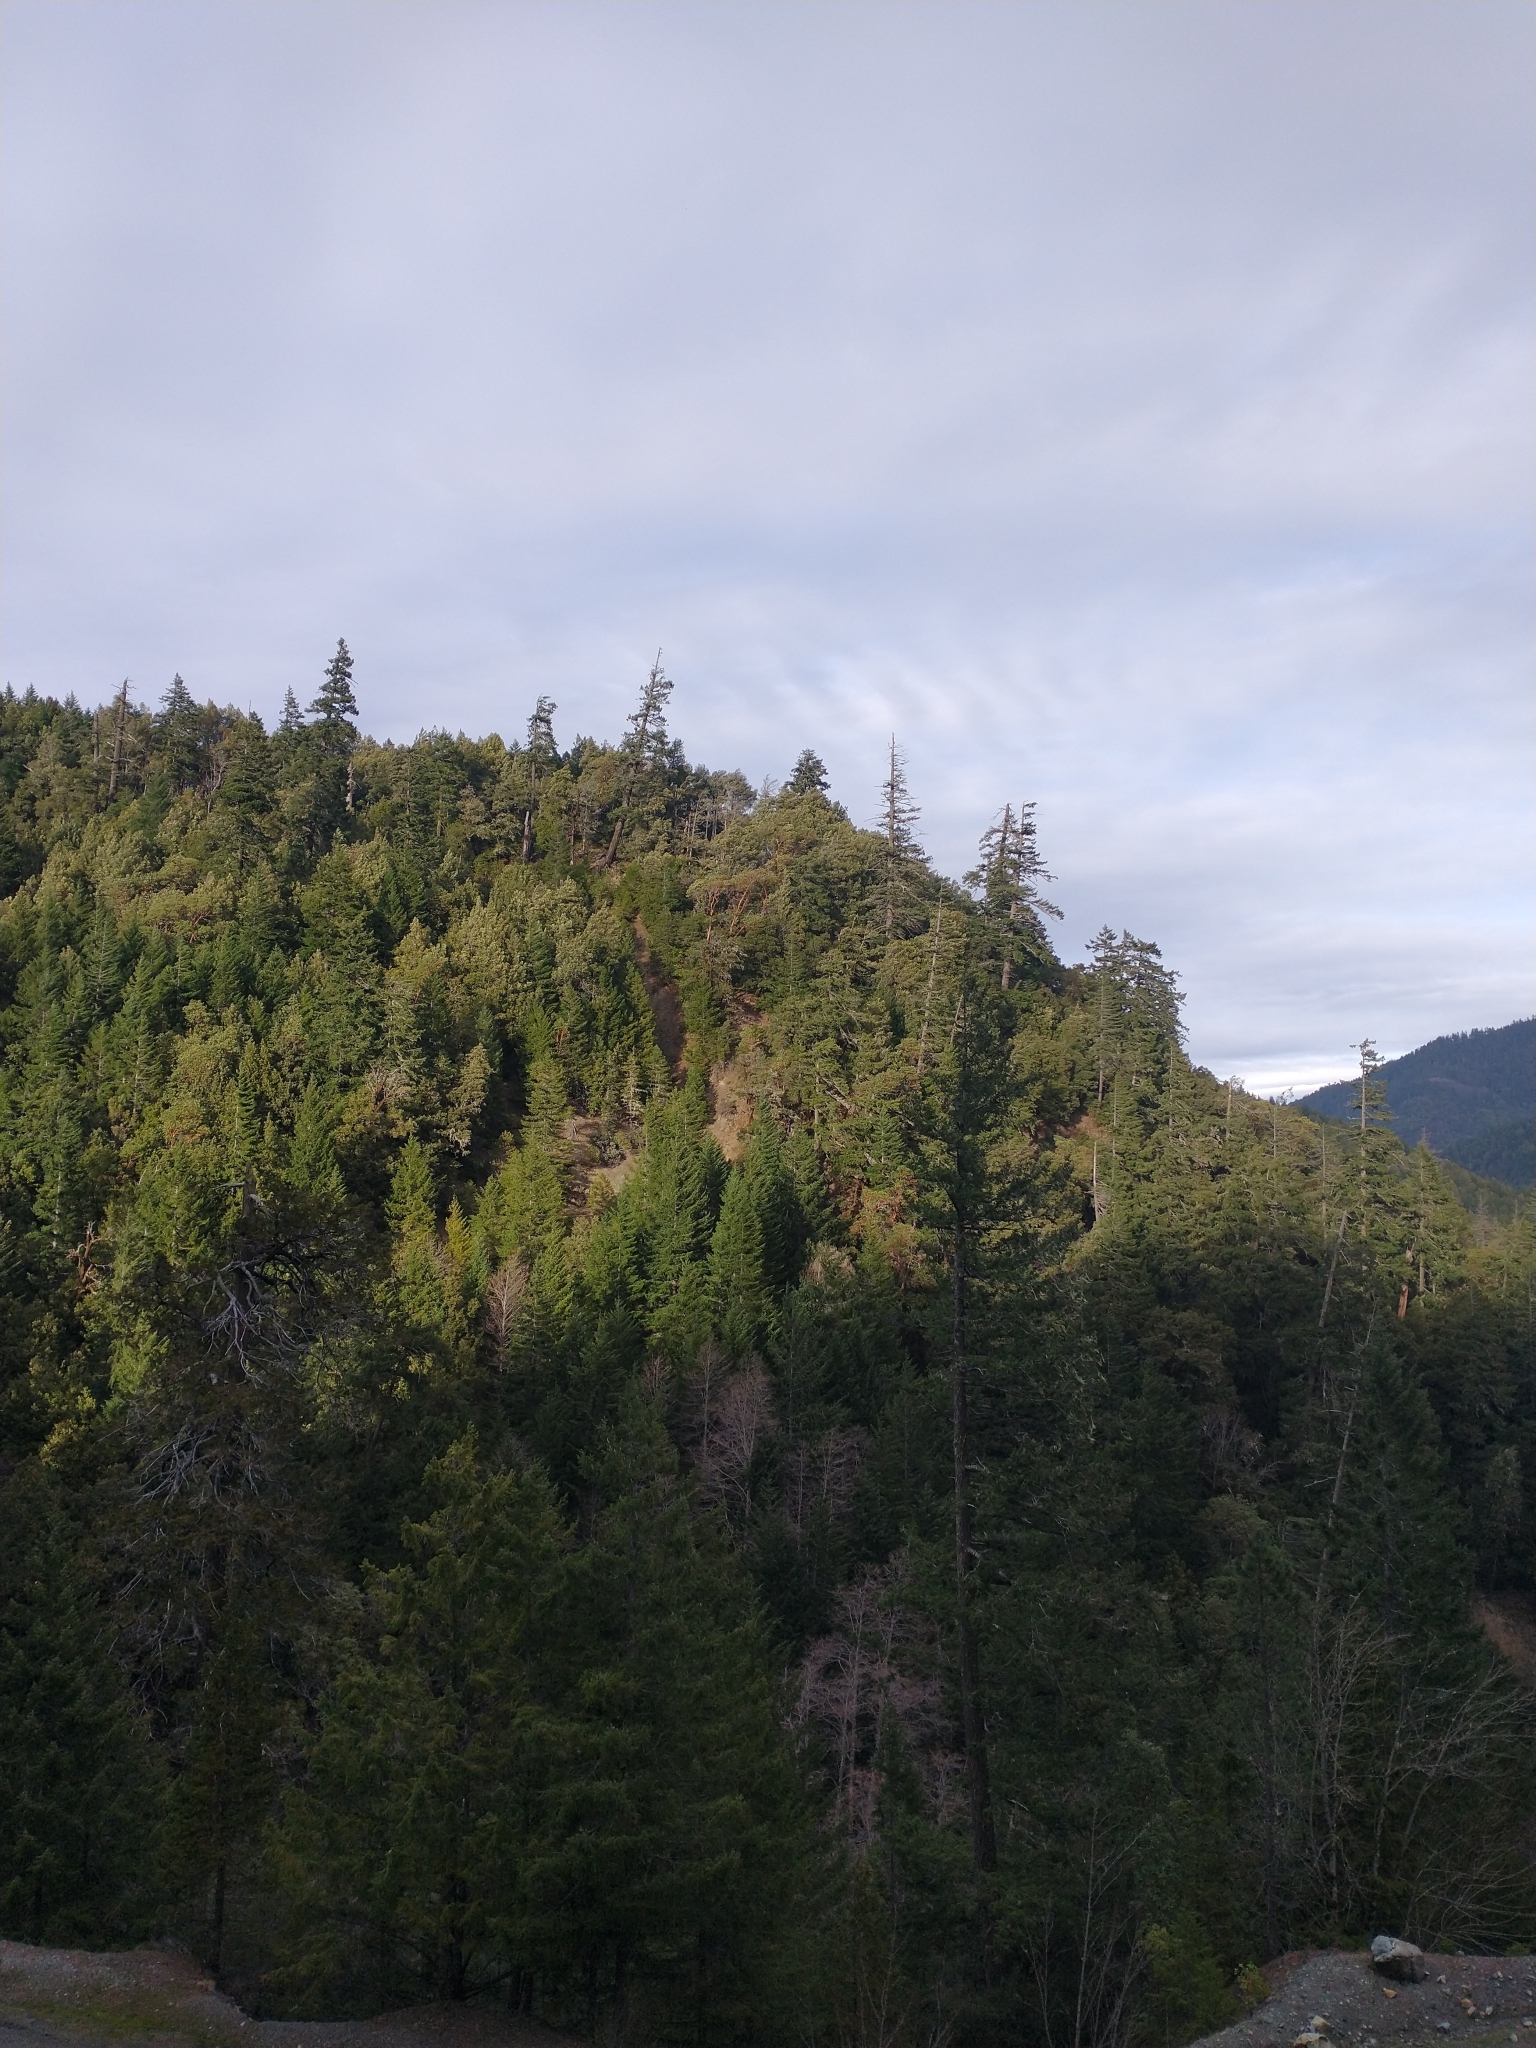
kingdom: Plantae
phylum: Tracheophyta
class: Pinopsida
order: Pinales
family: Pinaceae
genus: Pseudotsuga
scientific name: Pseudotsuga menziesii
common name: Douglas fir
